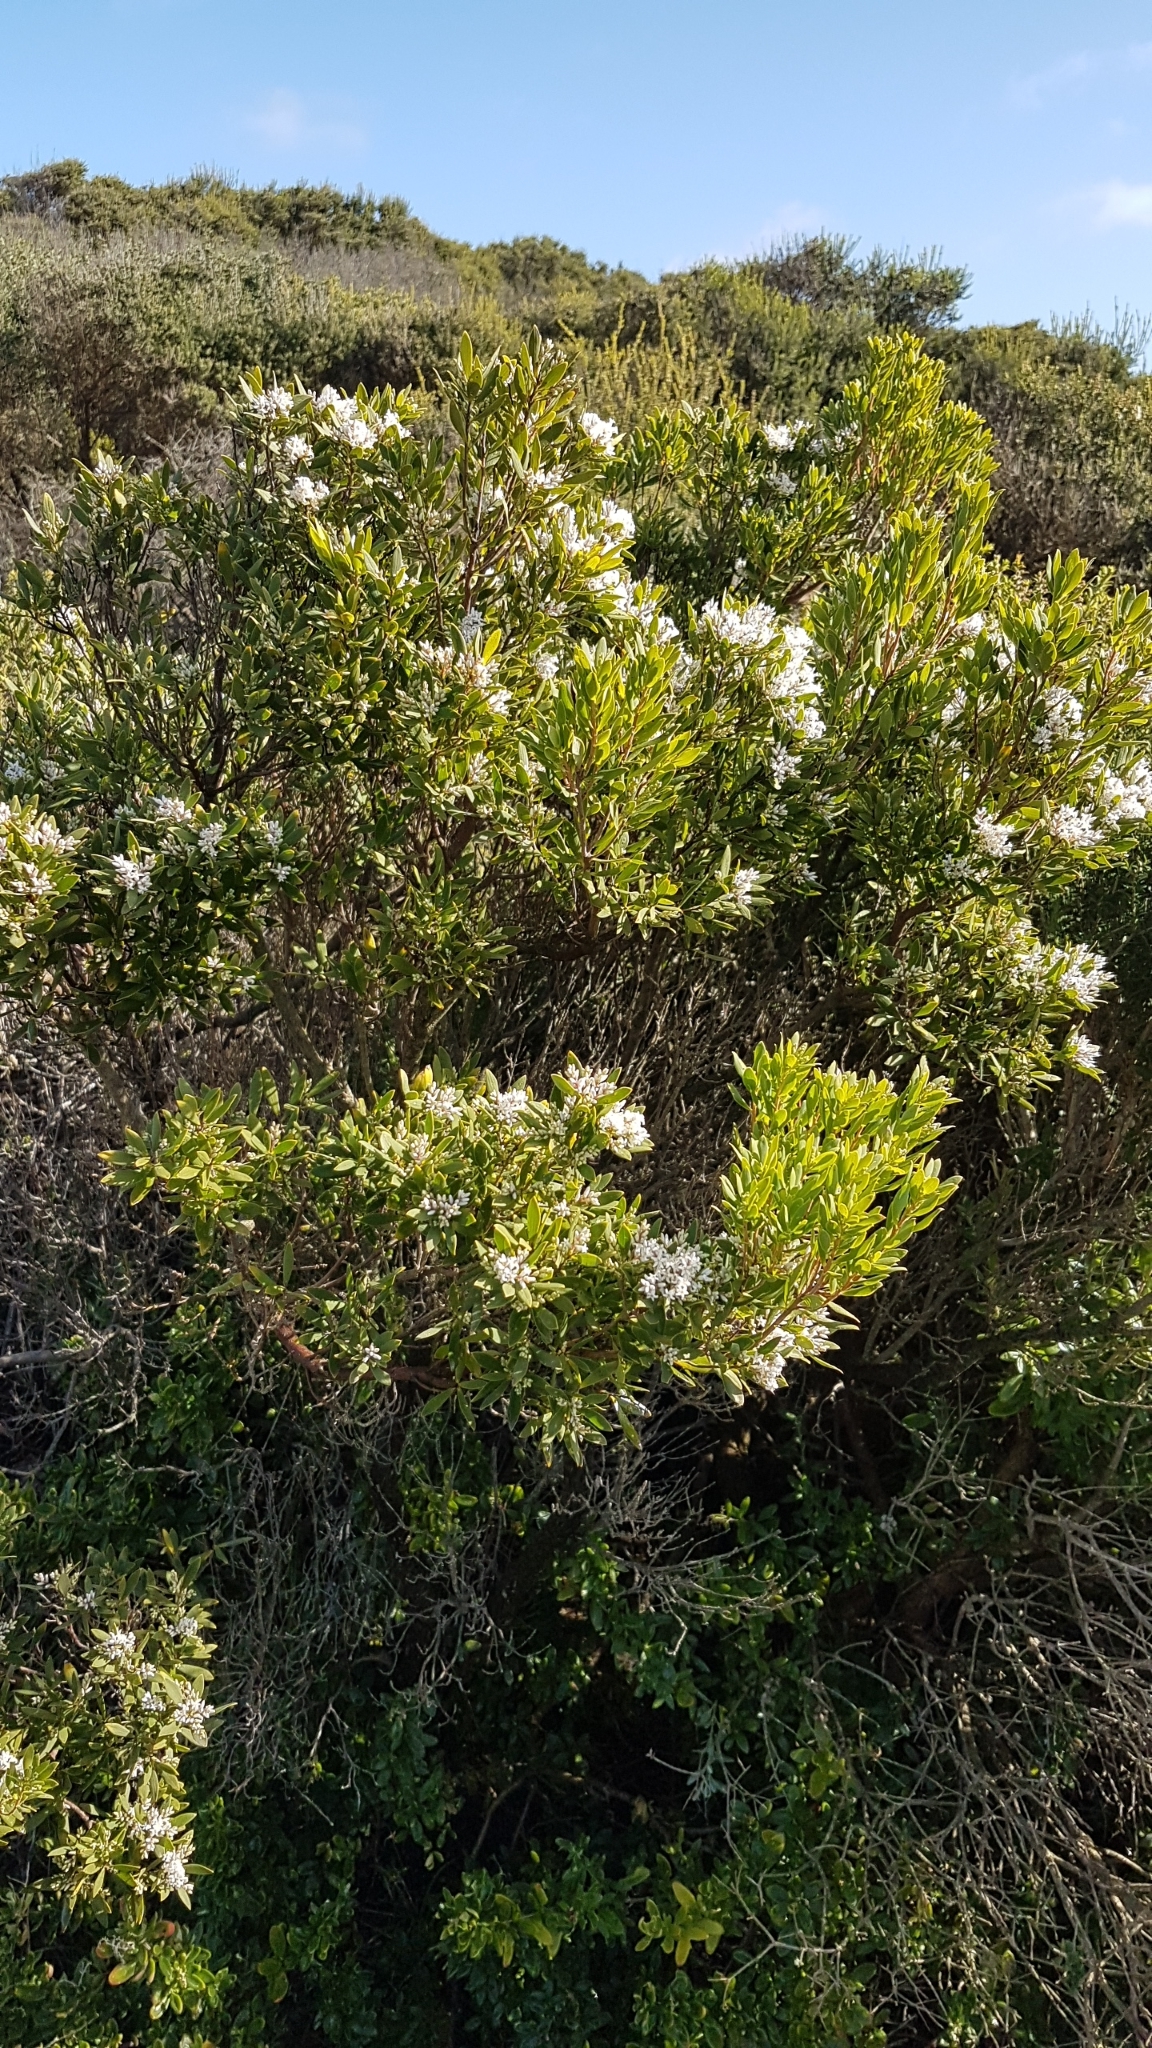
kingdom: Plantae
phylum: Tracheophyta
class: Magnoliopsida
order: Ericales
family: Ericaceae
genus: Leptecophylla
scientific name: Leptecophylla parvifolia
